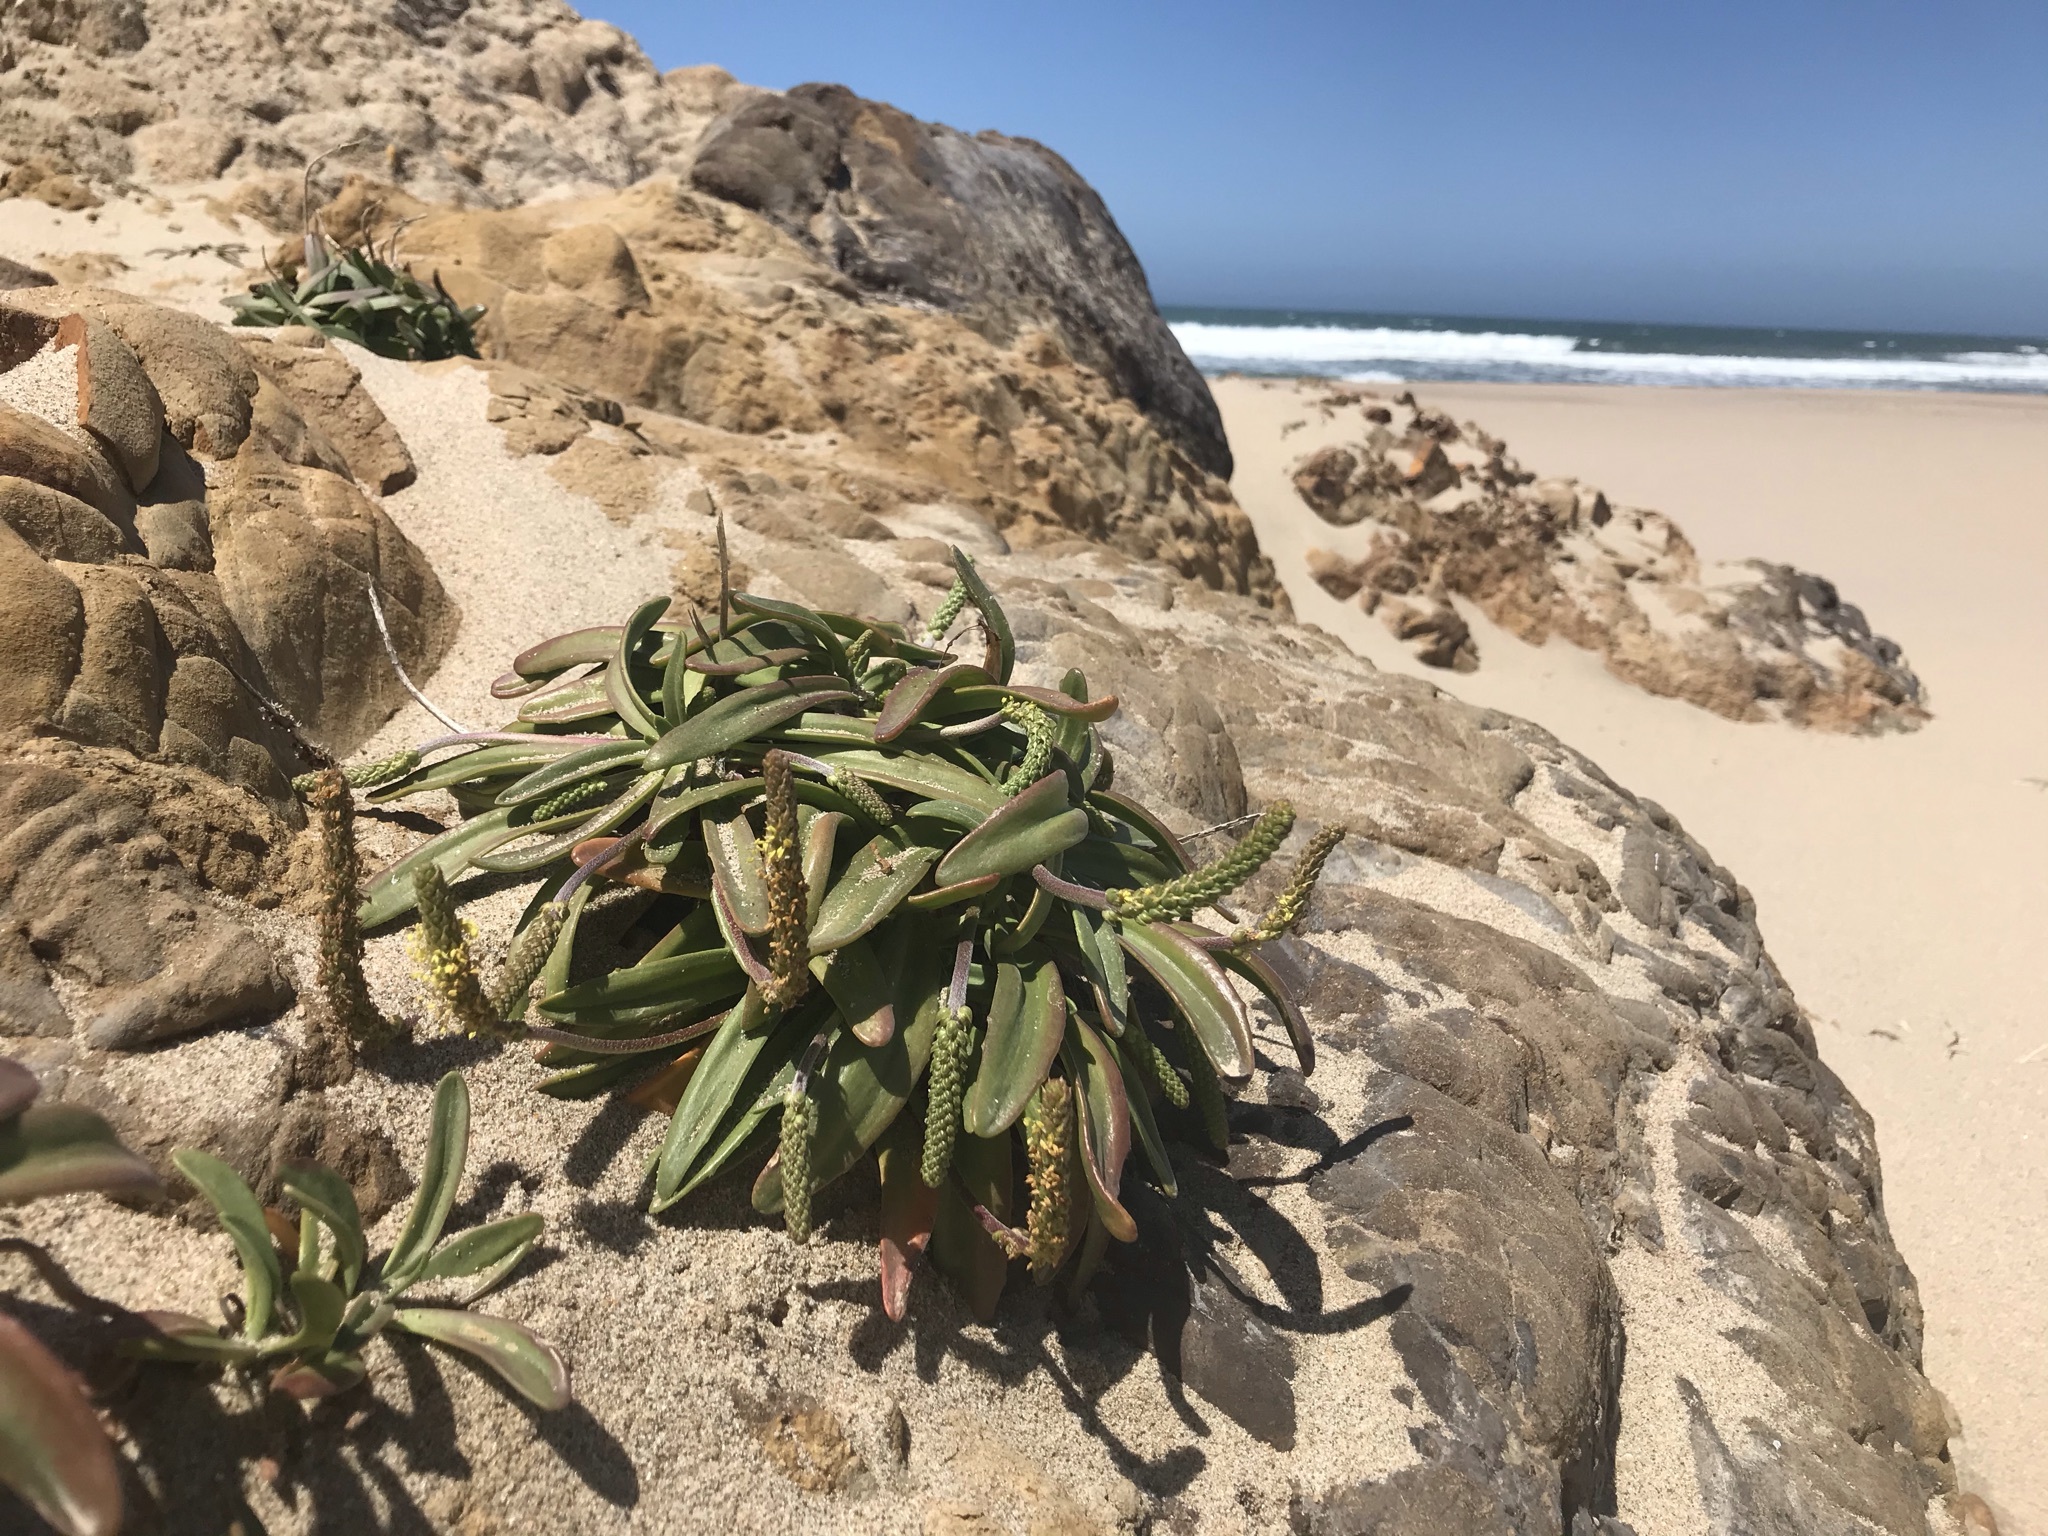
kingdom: Plantae
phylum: Tracheophyta
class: Magnoliopsida
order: Lamiales
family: Plantaginaceae
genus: Plantago
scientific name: Plantago maritima
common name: Sea plantain
